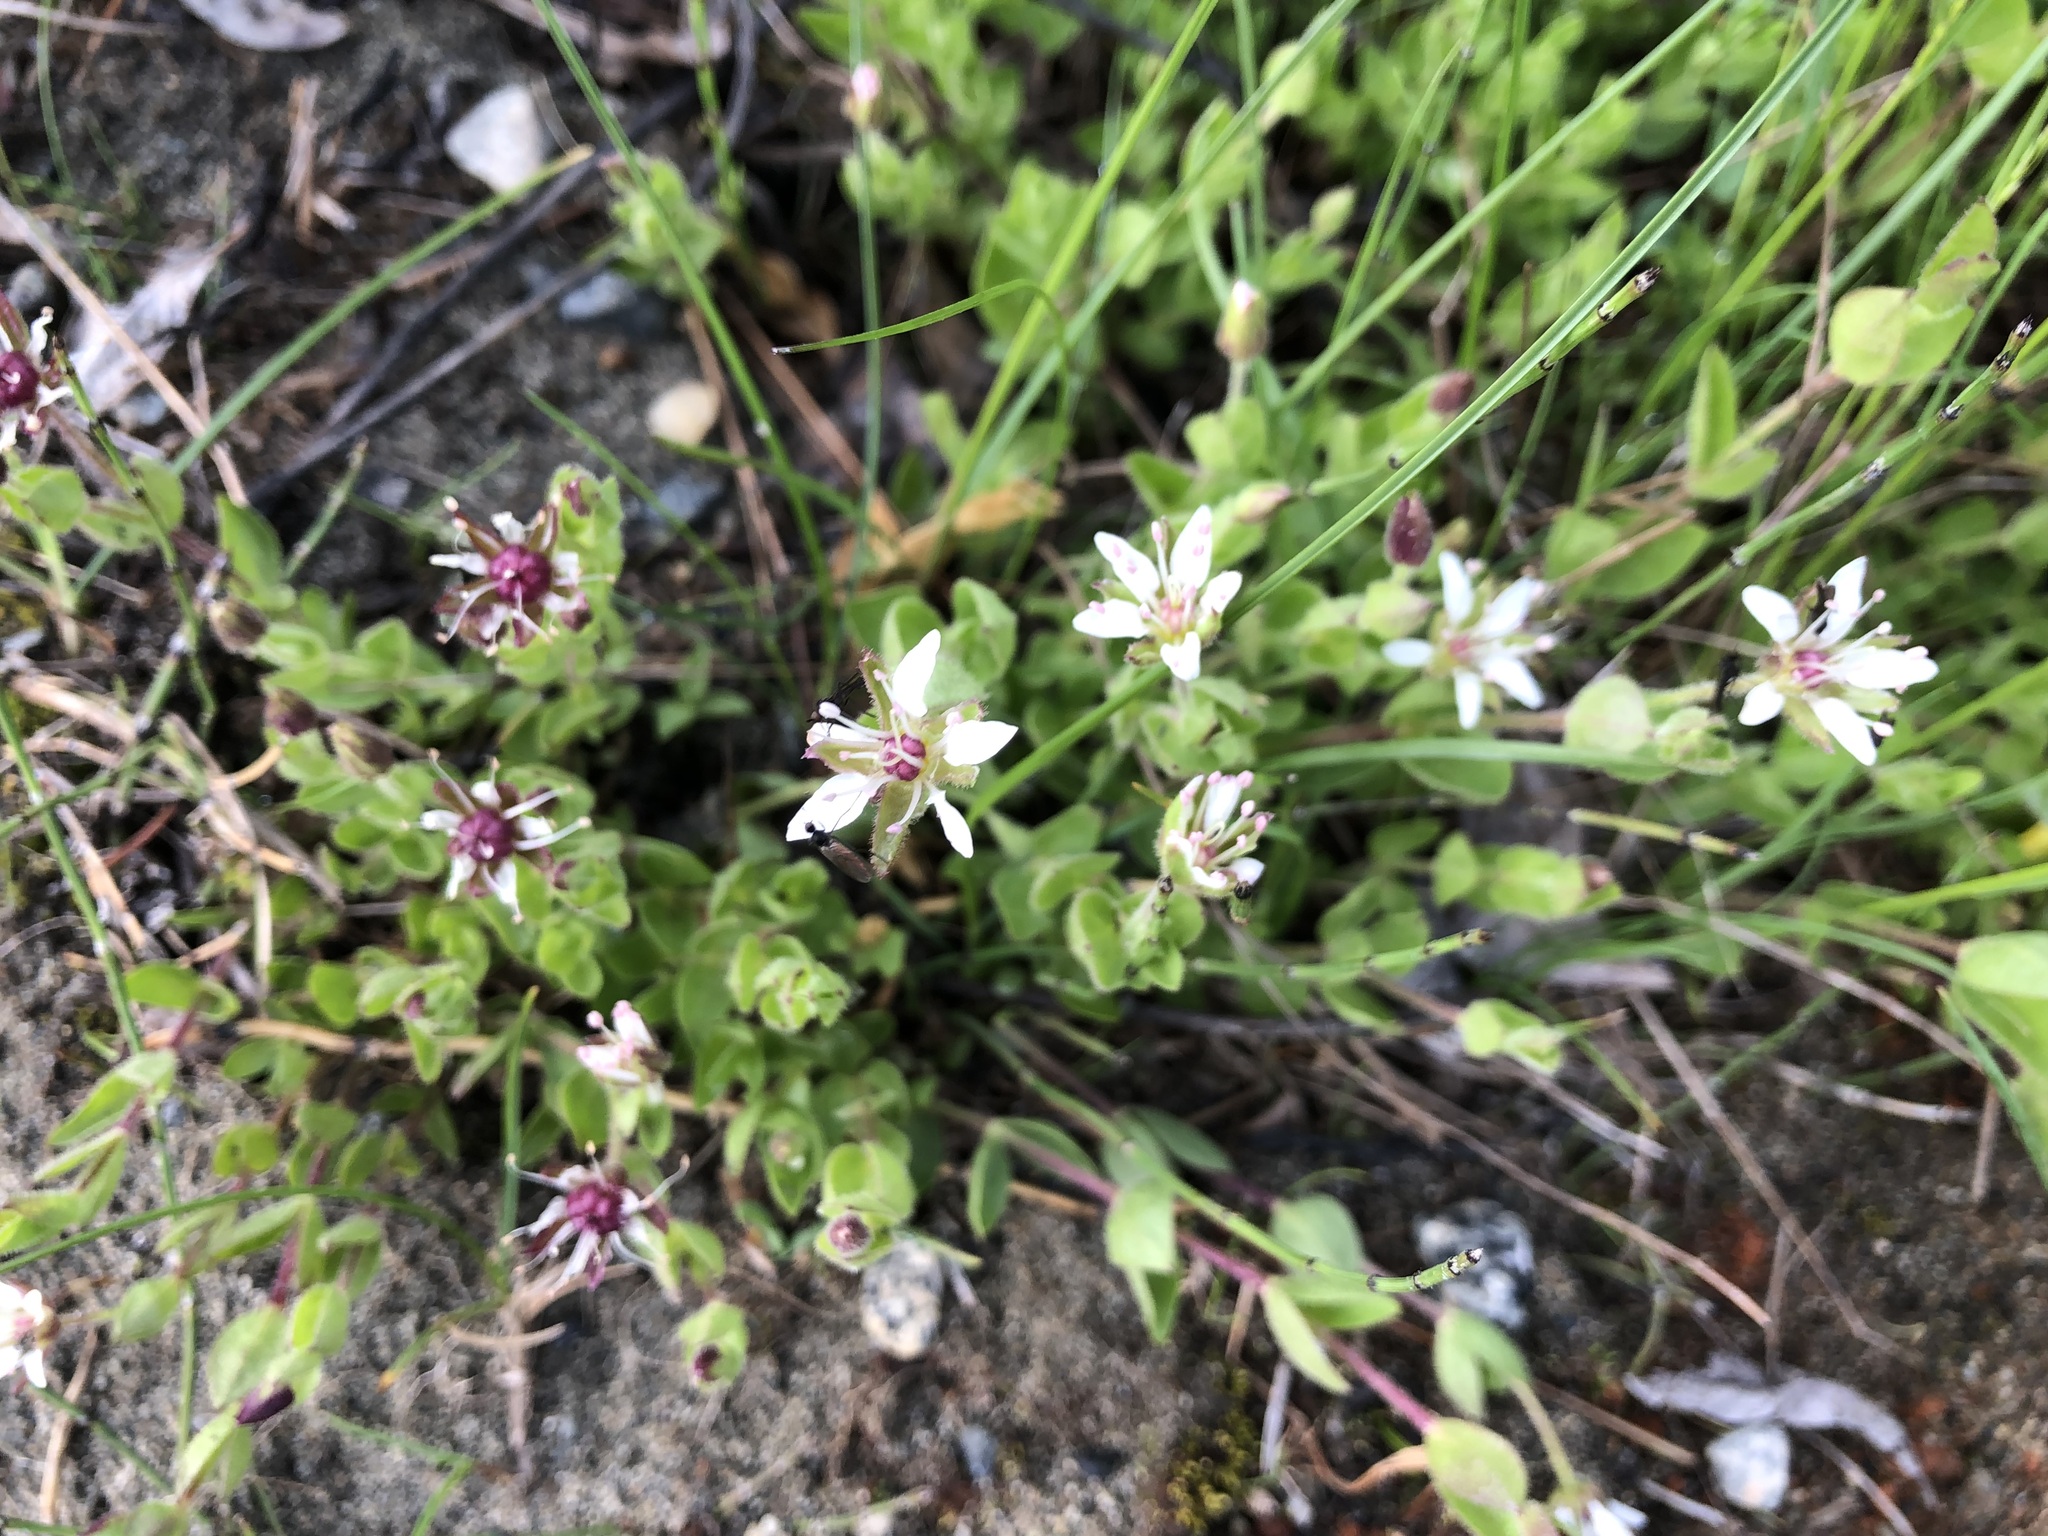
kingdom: Plantae
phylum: Tracheophyta
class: Magnoliopsida
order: Caryophyllales
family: Caryophyllaceae
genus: Wilhelmsia
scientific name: Wilhelmsia physodes
